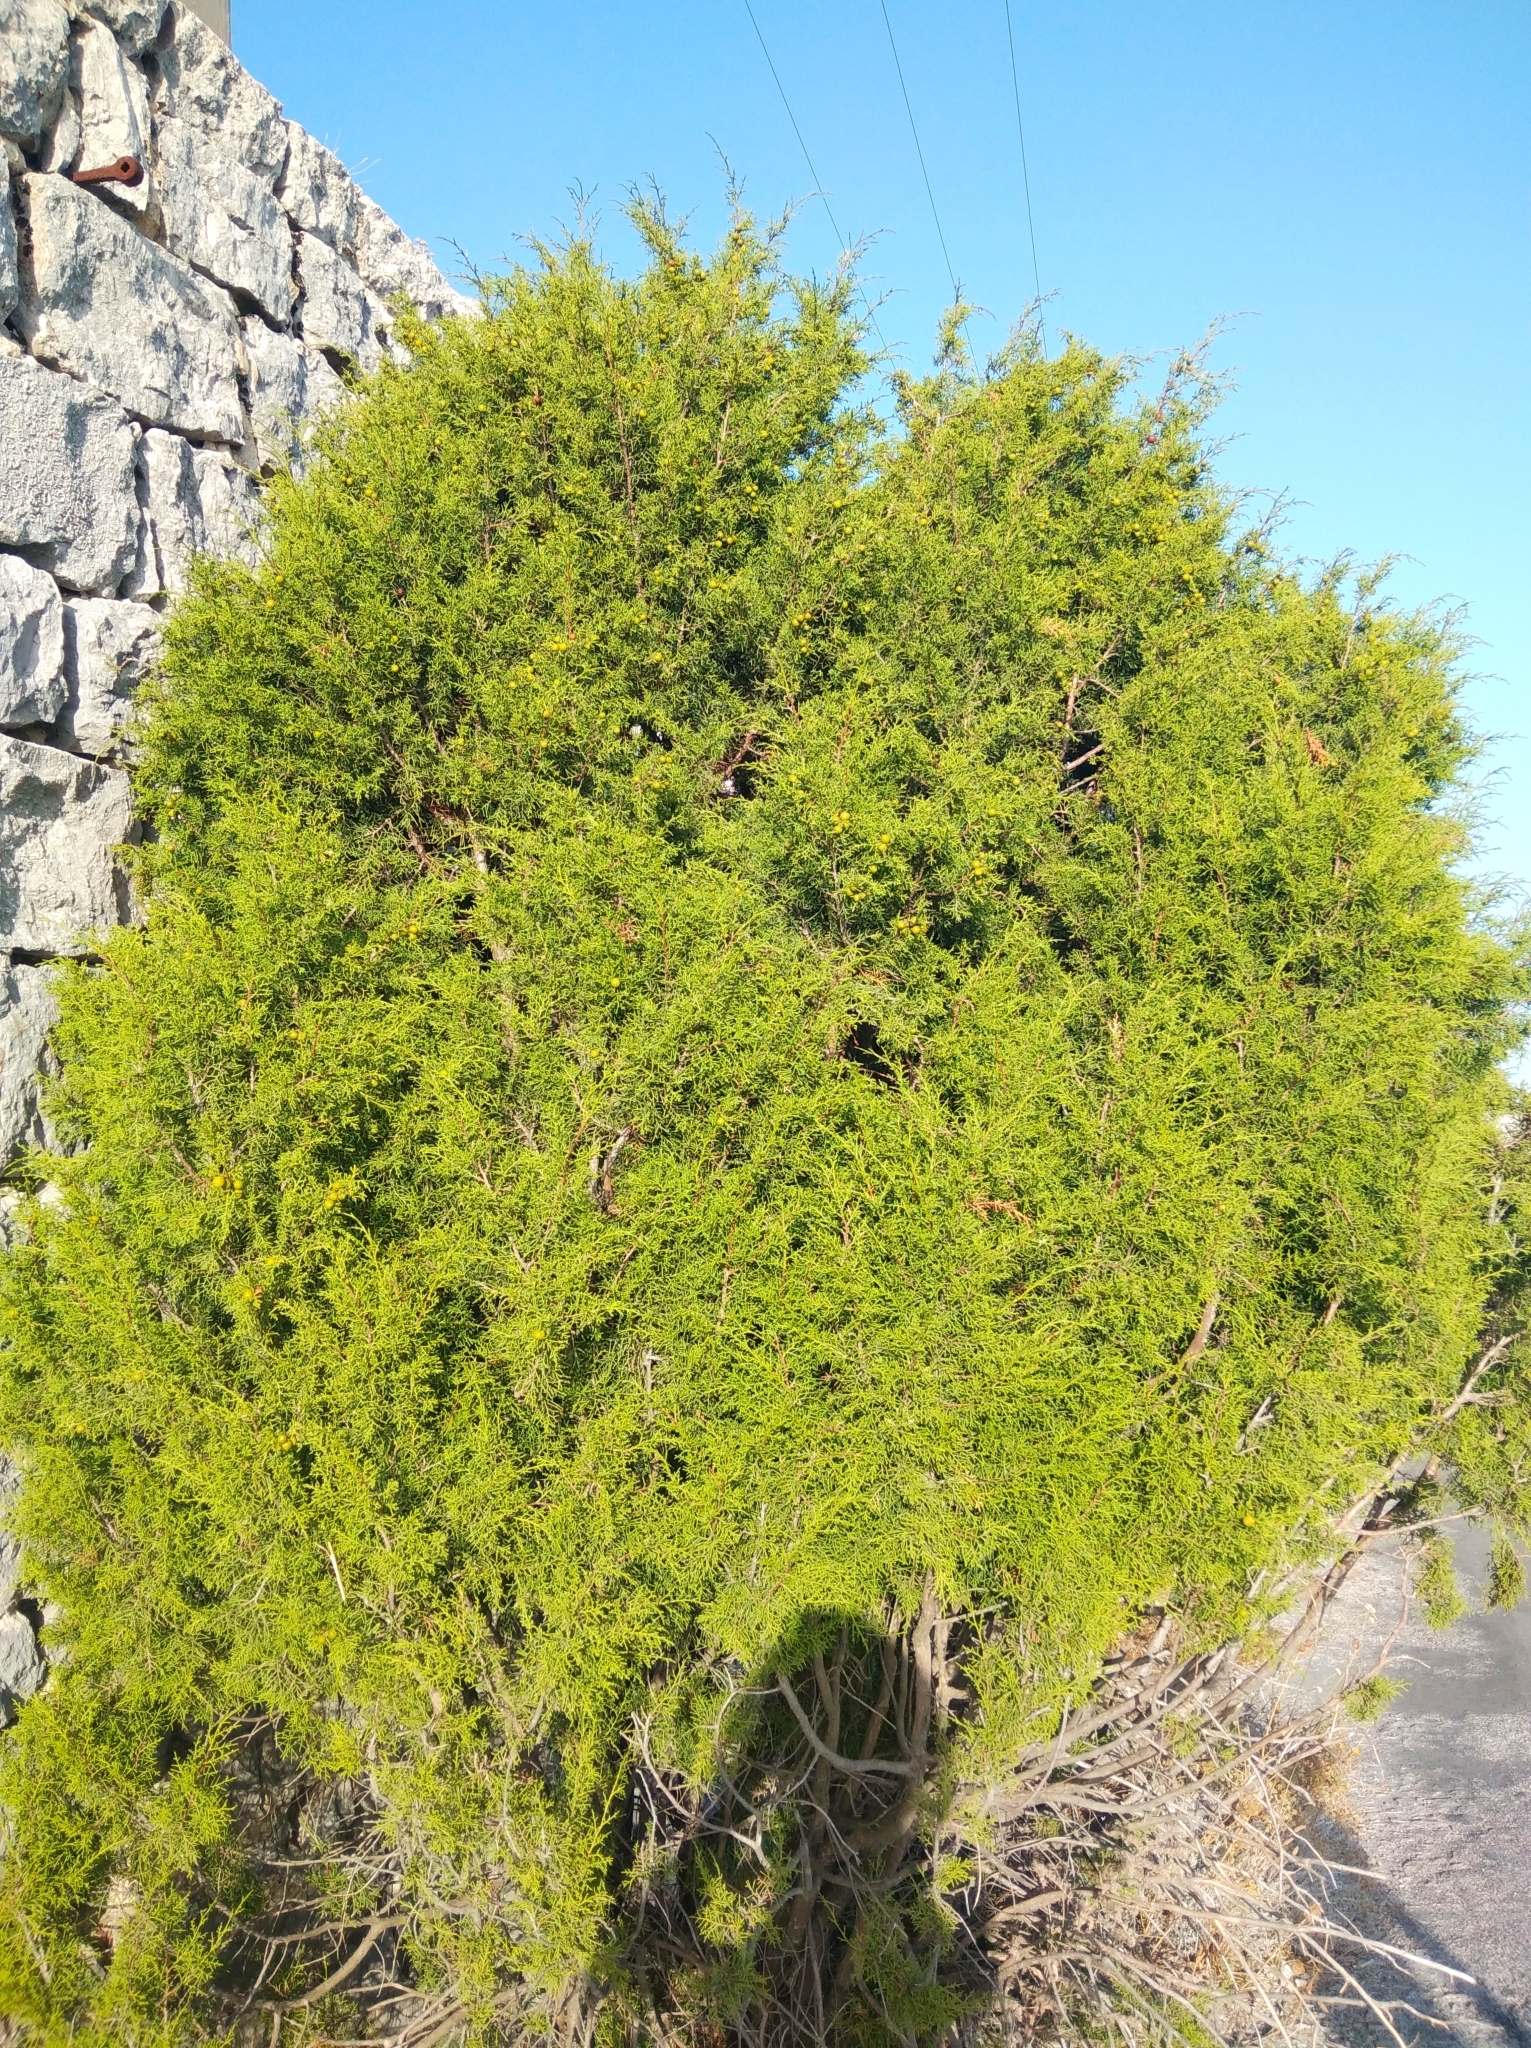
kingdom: Plantae
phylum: Tracheophyta
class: Pinopsida
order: Pinales
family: Cupressaceae
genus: Juniperus
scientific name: Juniperus phoenicea
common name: Phoenician juniper
